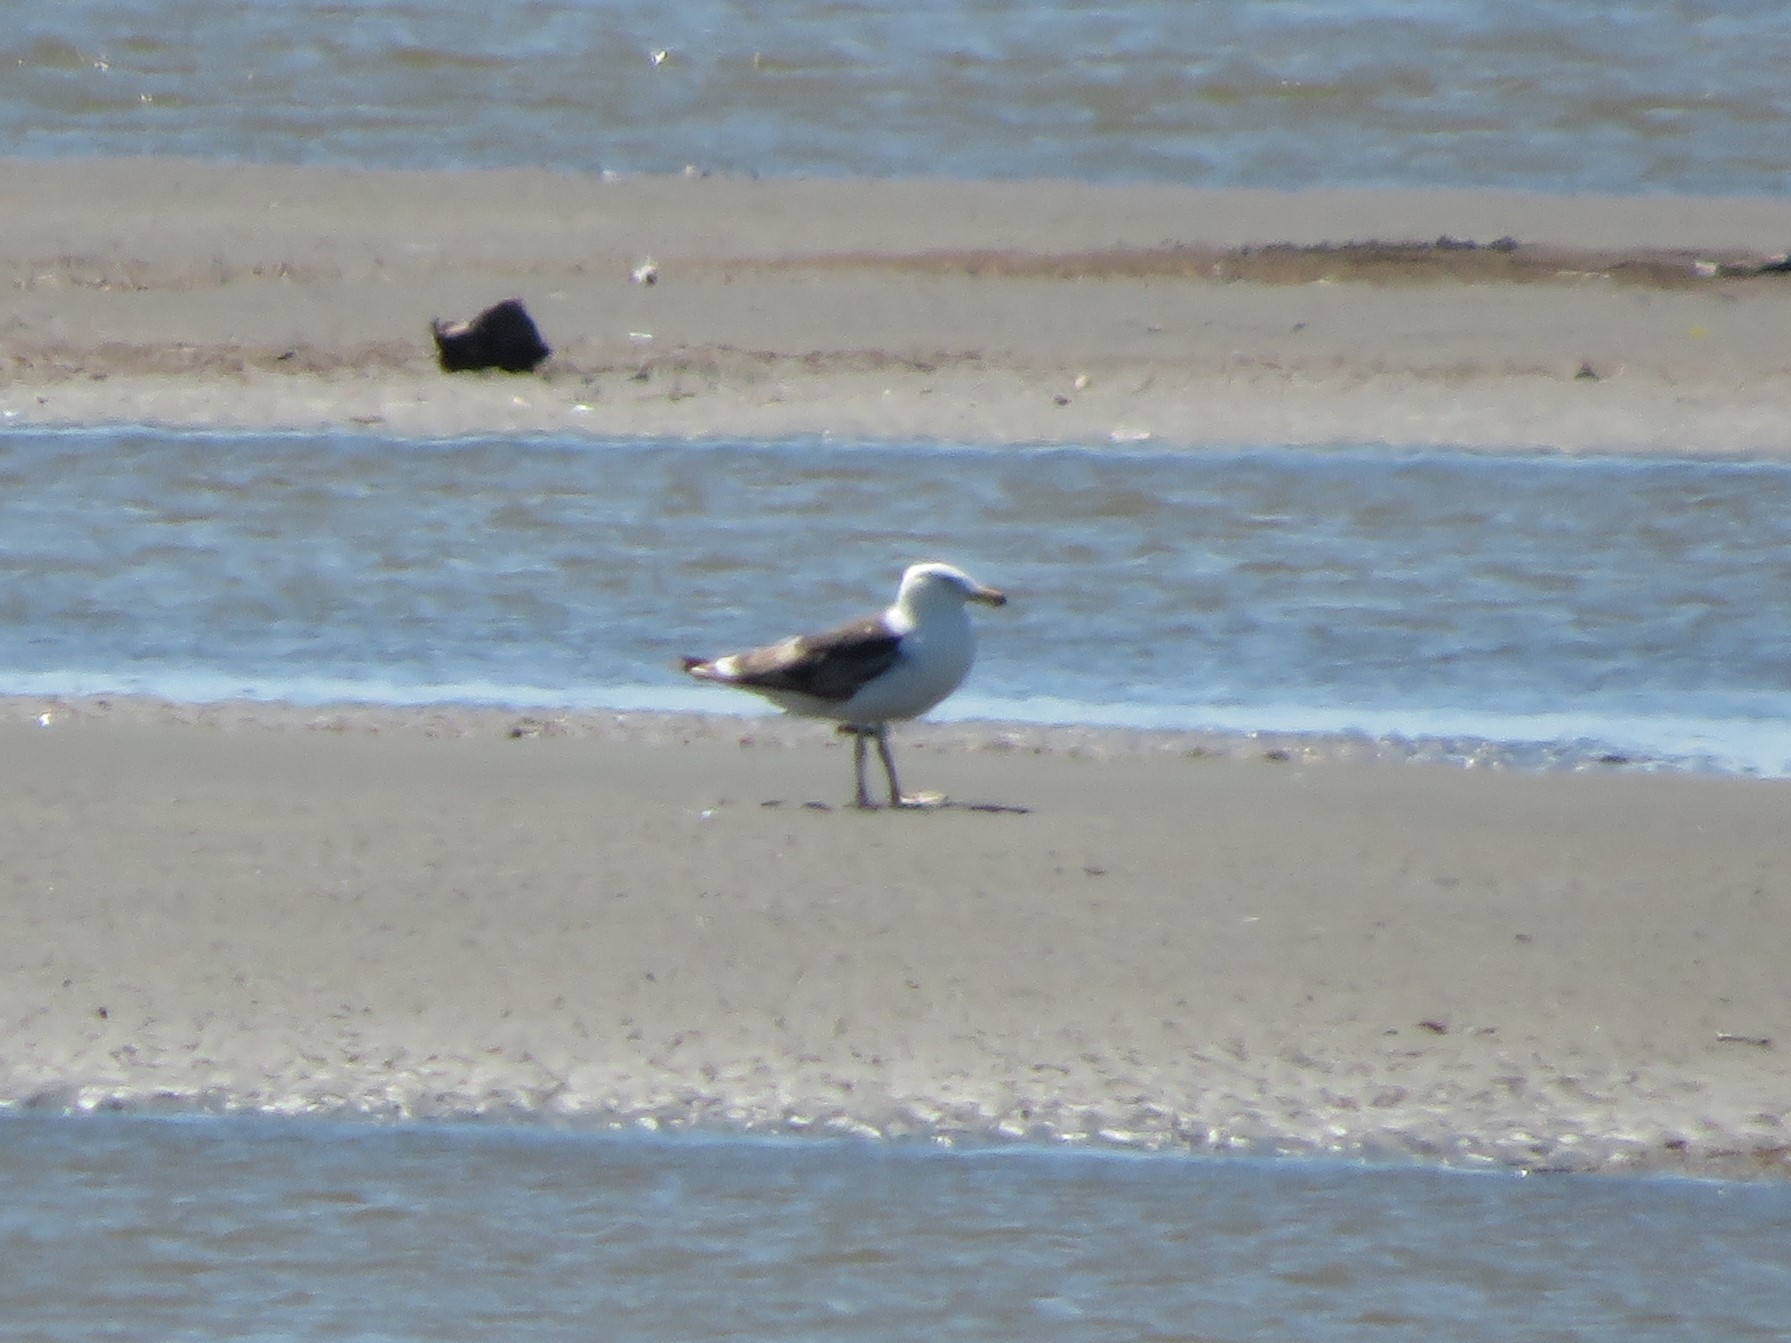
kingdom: Animalia
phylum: Chordata
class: Aves
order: Charadriiformes
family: Laridae
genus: Larus
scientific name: Larus dominicanus
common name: Kelp gull
